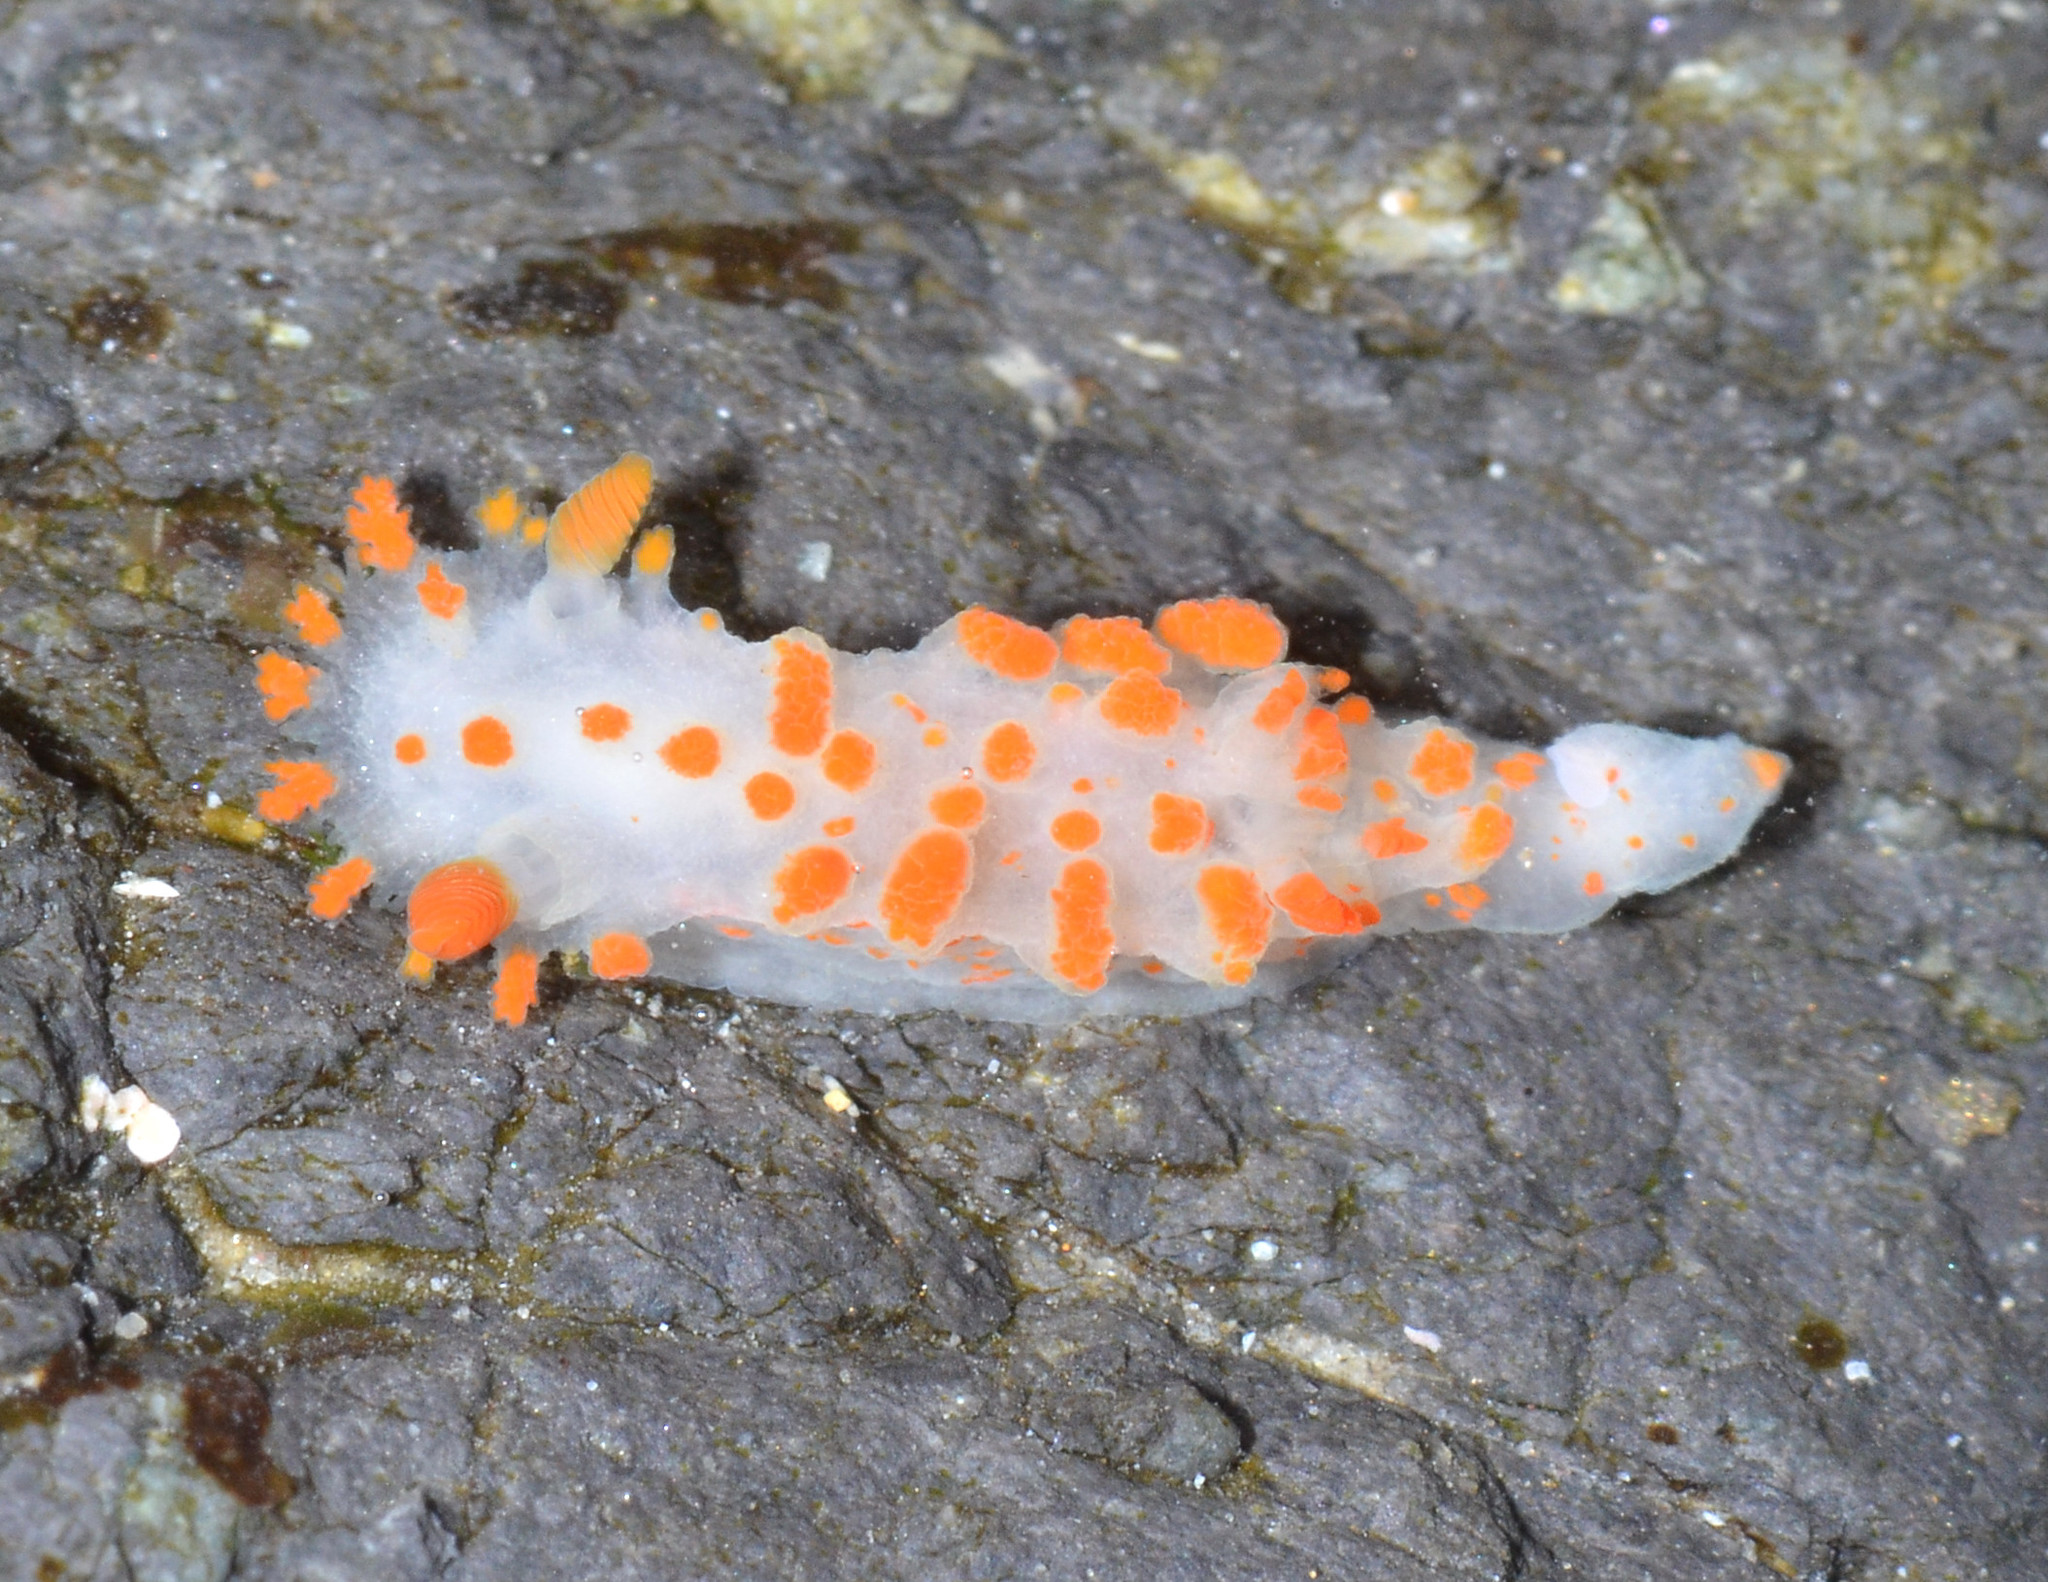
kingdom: Animalia
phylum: Mollusca
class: Gastropoda
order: Nudibranchia
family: Polyceridae
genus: Triopha
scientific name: Triopha catalinae
